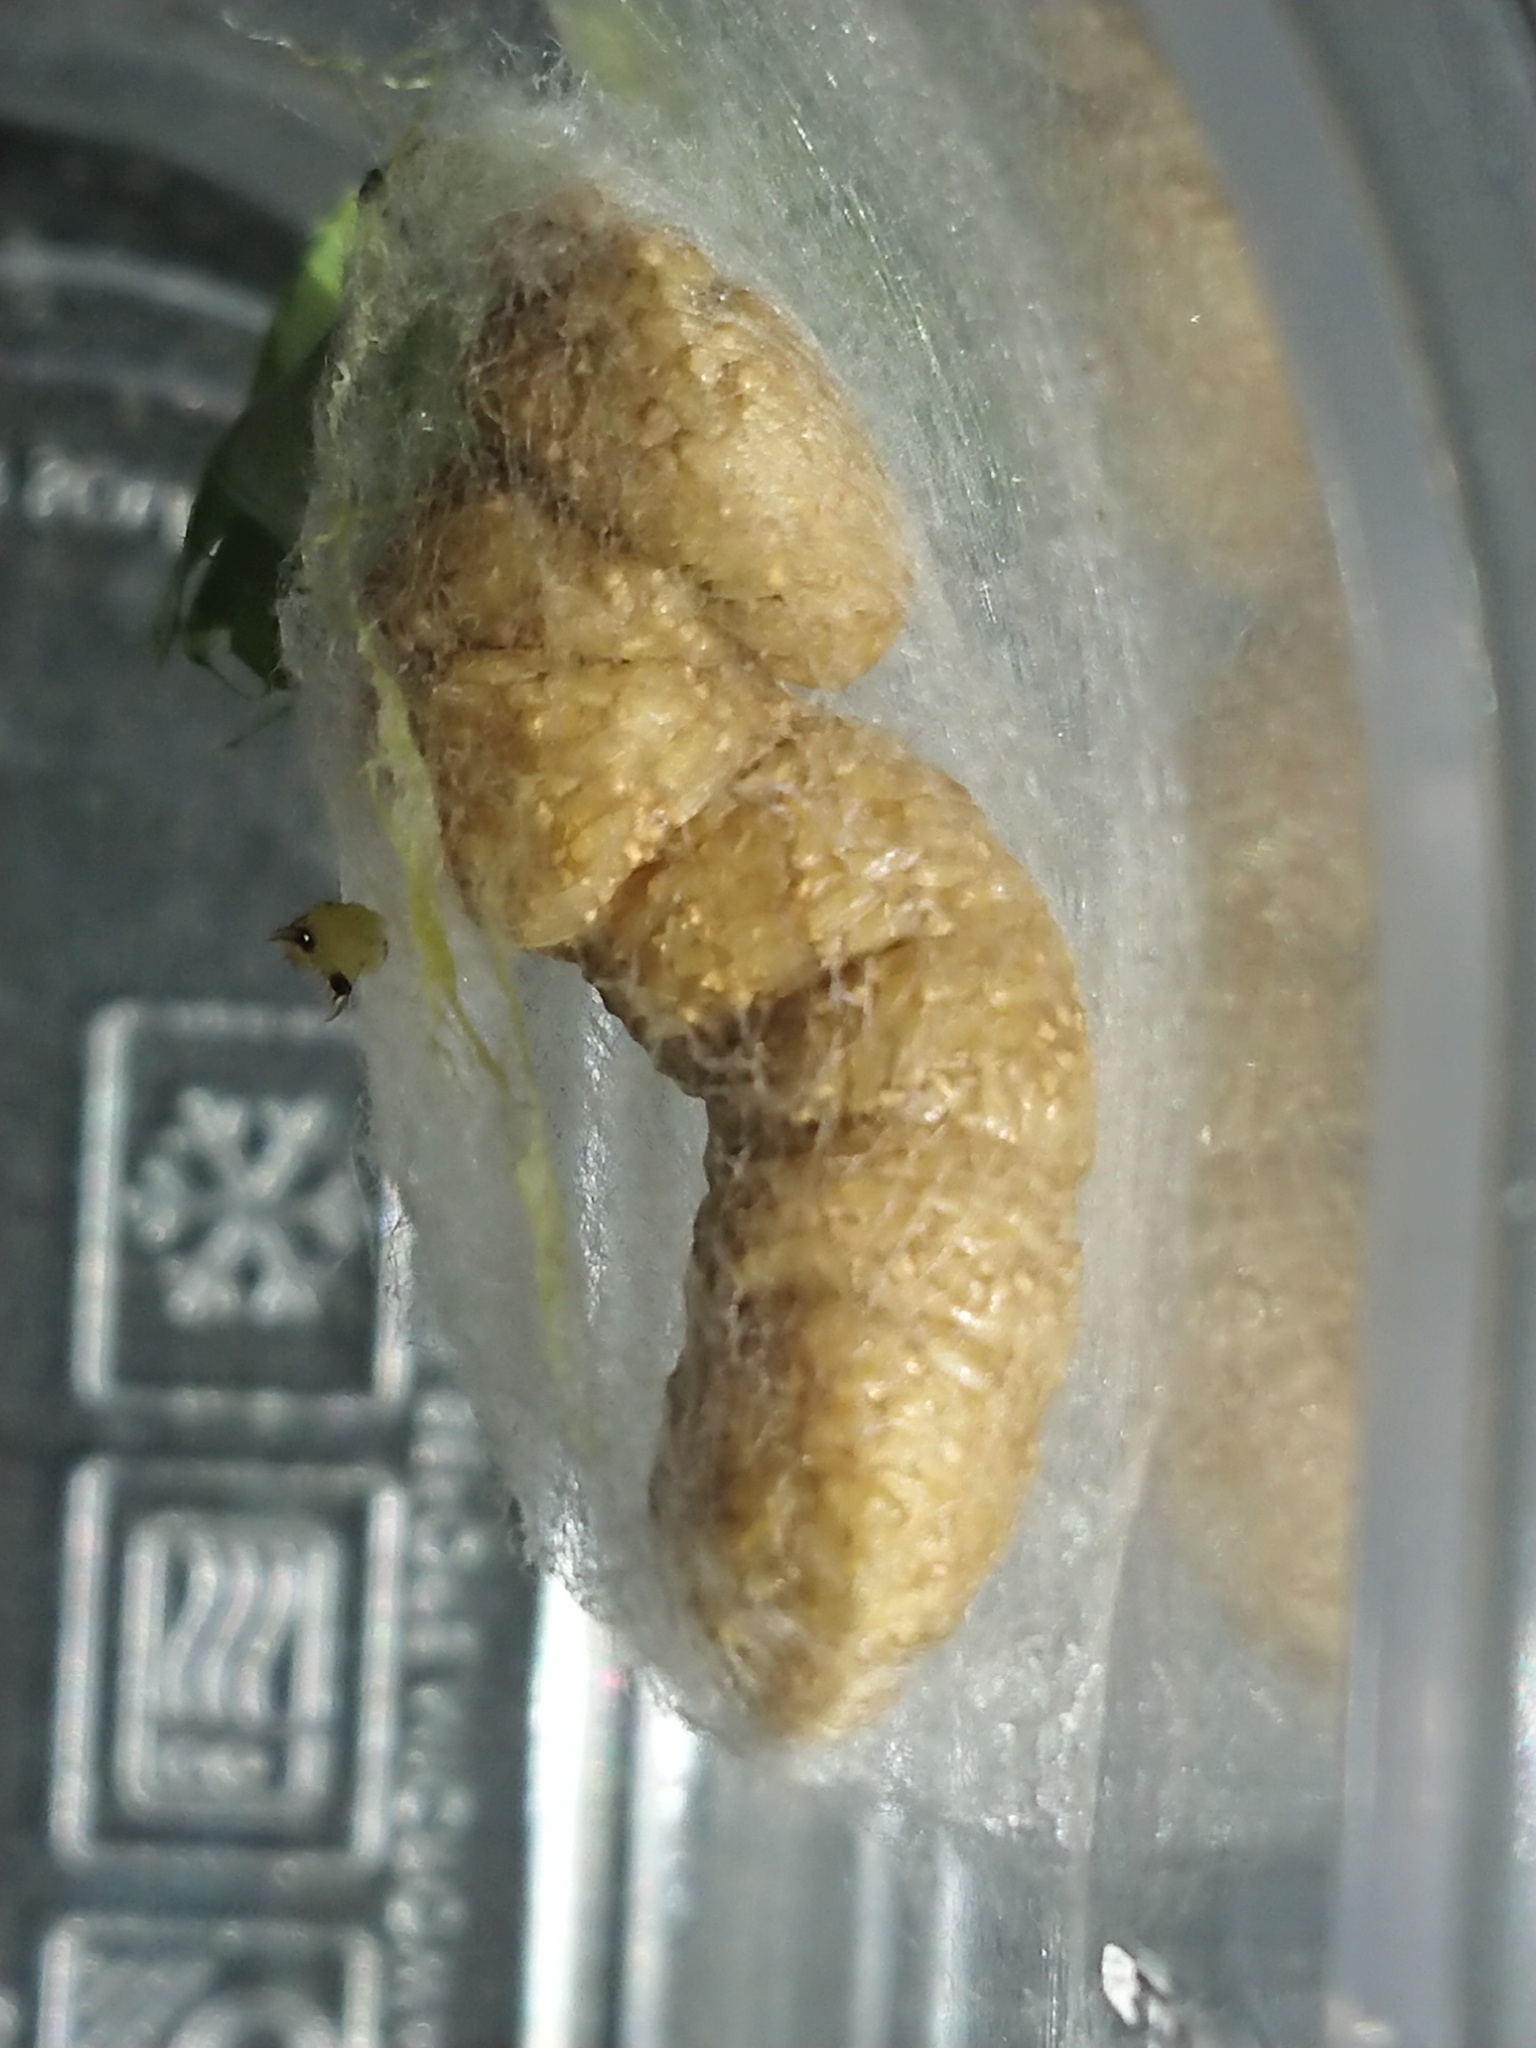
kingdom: Animalia
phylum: Arthropoda
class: Insecta
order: Hymenoptera
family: Encyrtidae
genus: Copidosoma
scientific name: Copidosoma floridanum
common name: Parasitoid wasp
